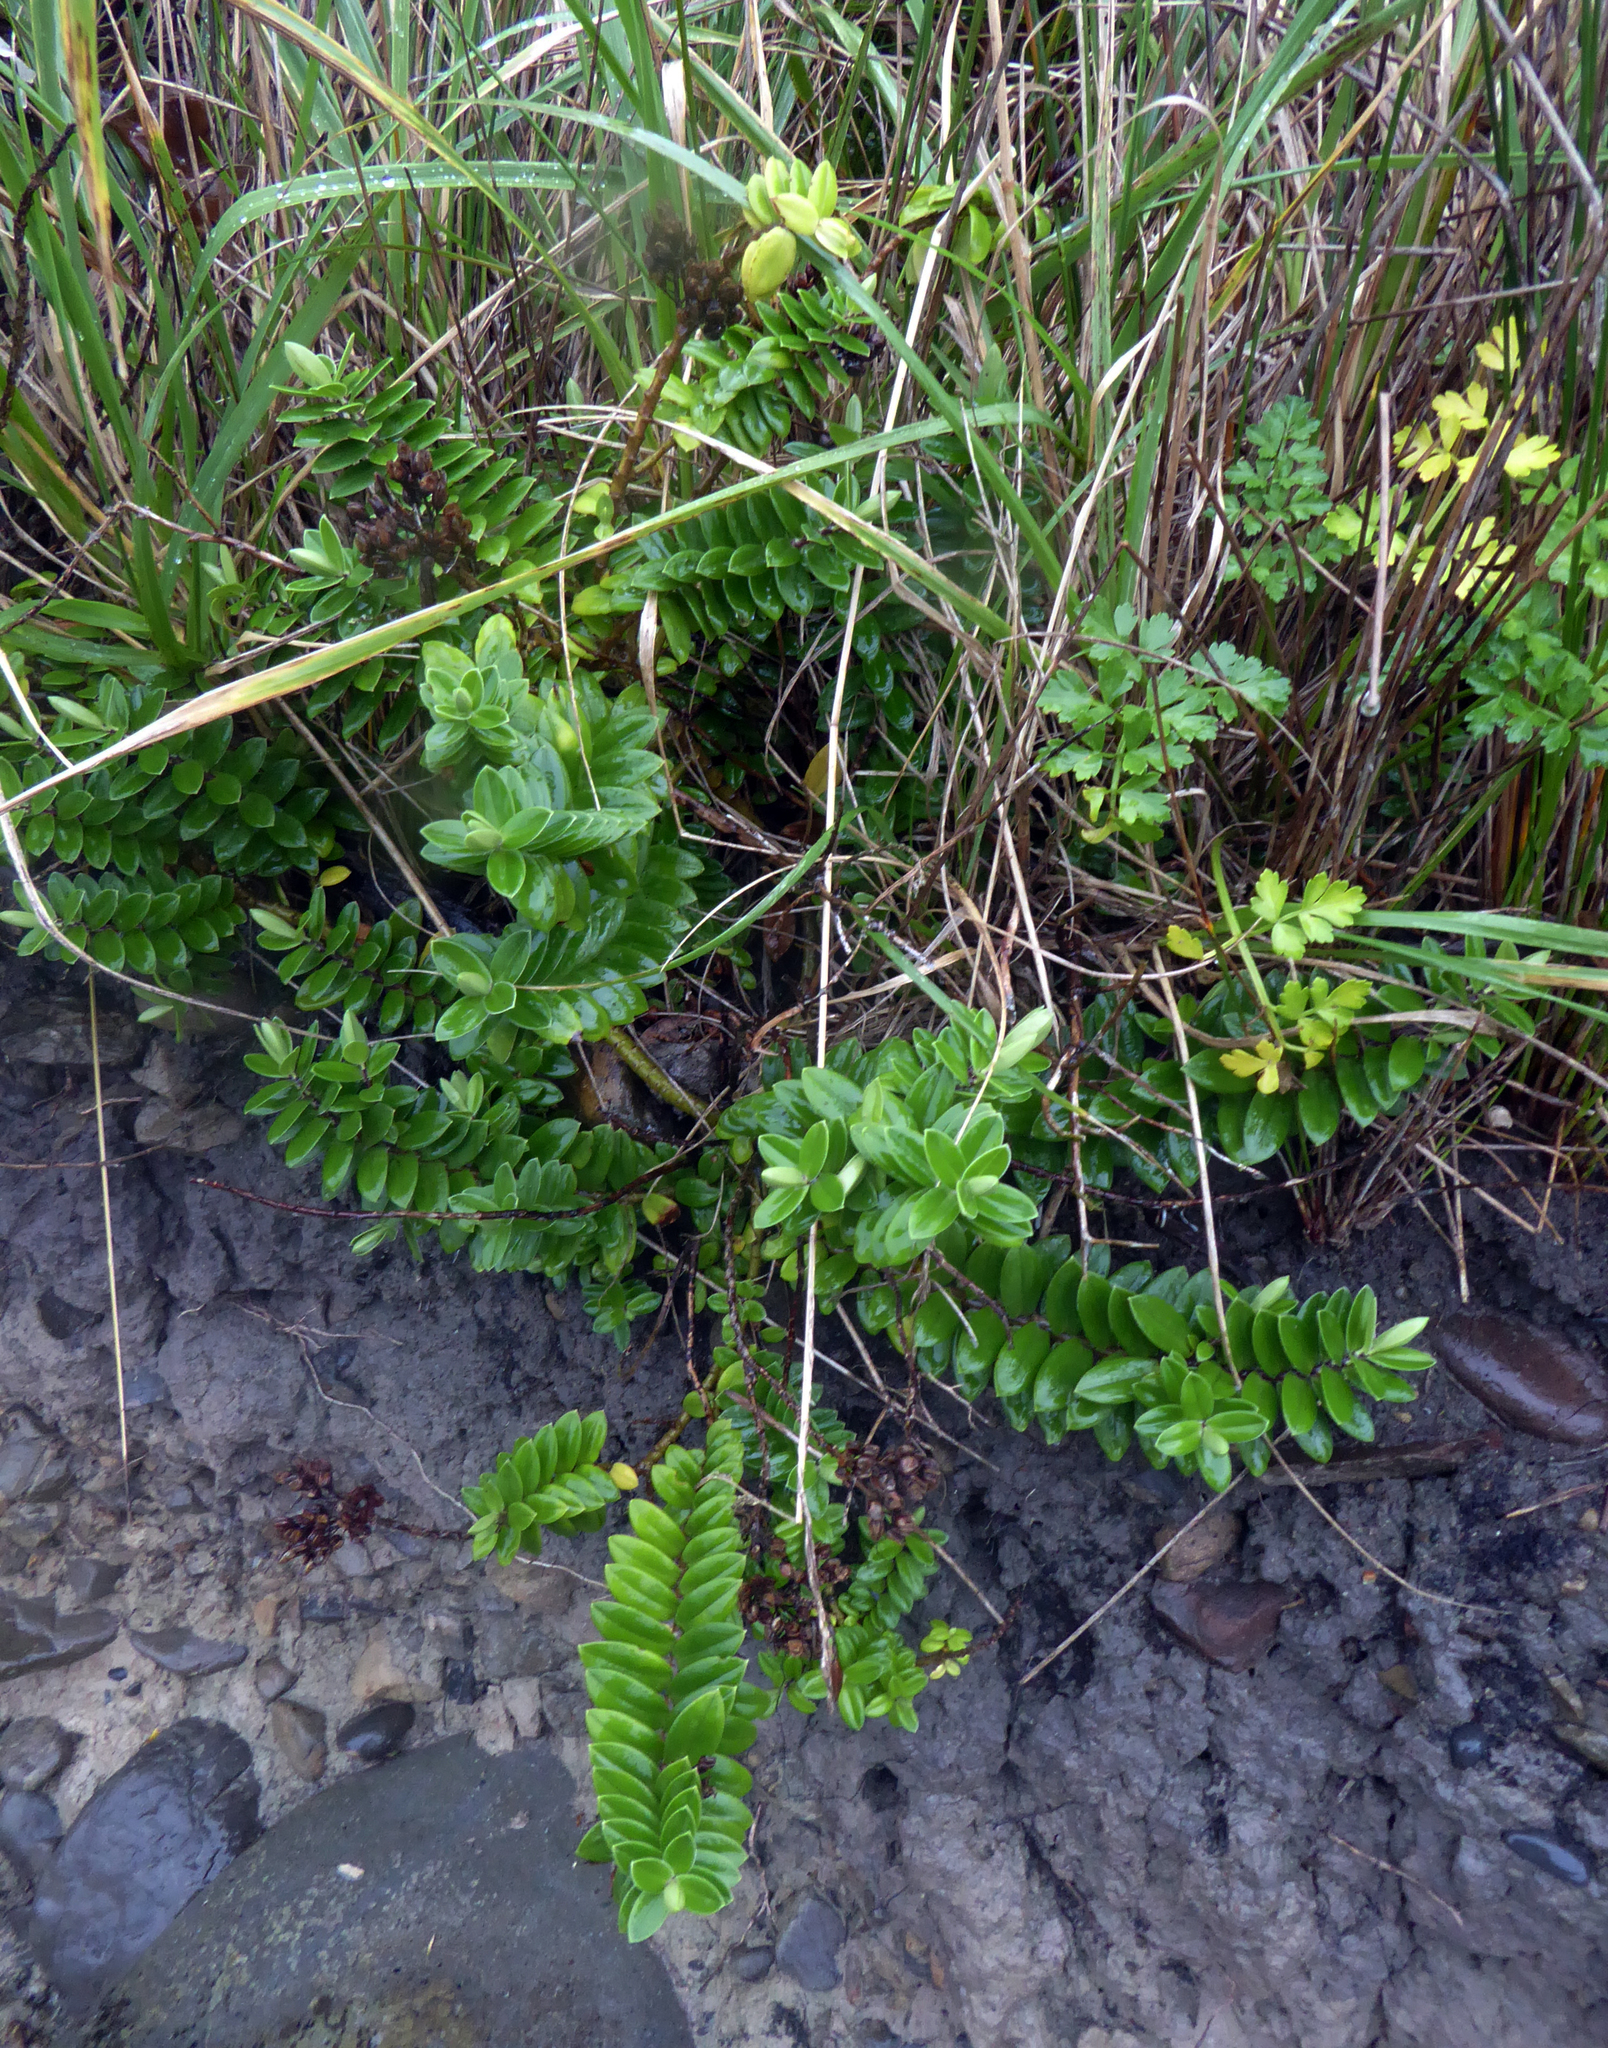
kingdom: Plantae
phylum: Tracheophyta
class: Magnoliopsida
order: Lamiales
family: Plantaginaceae
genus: Veronica
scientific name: Veronica elliptica
